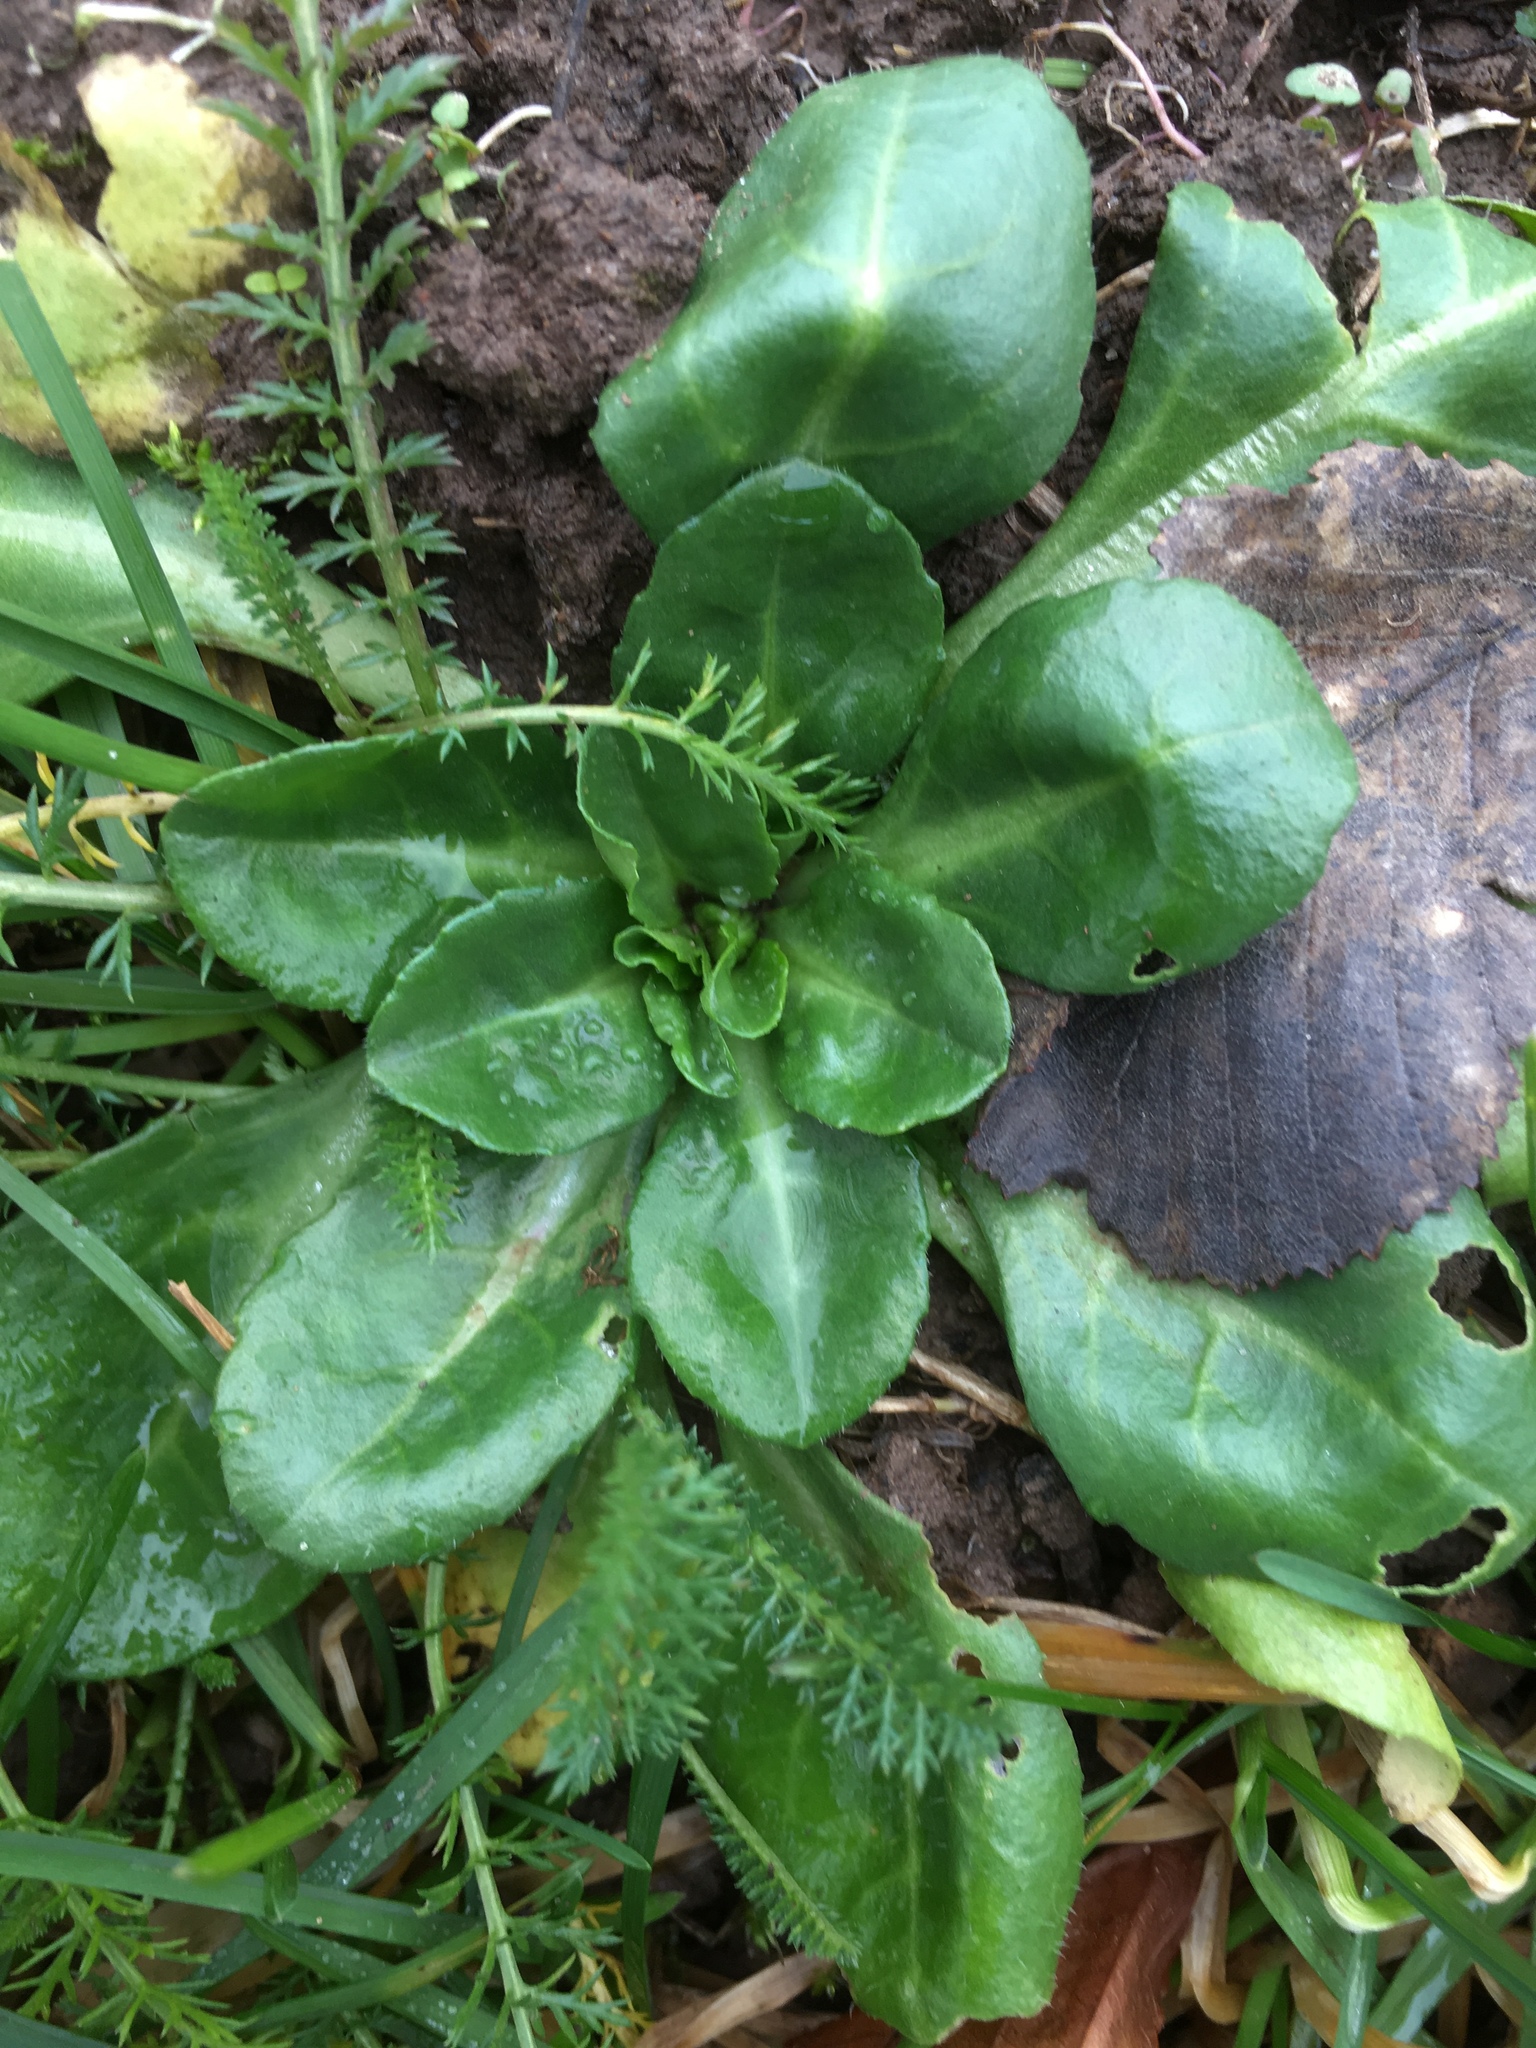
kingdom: Plantae
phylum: Tracheophyta
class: Magnoliopsida
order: Asterales
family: Asteraceae
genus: Bellis
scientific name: Bellis perennis
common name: Lawndaisy
